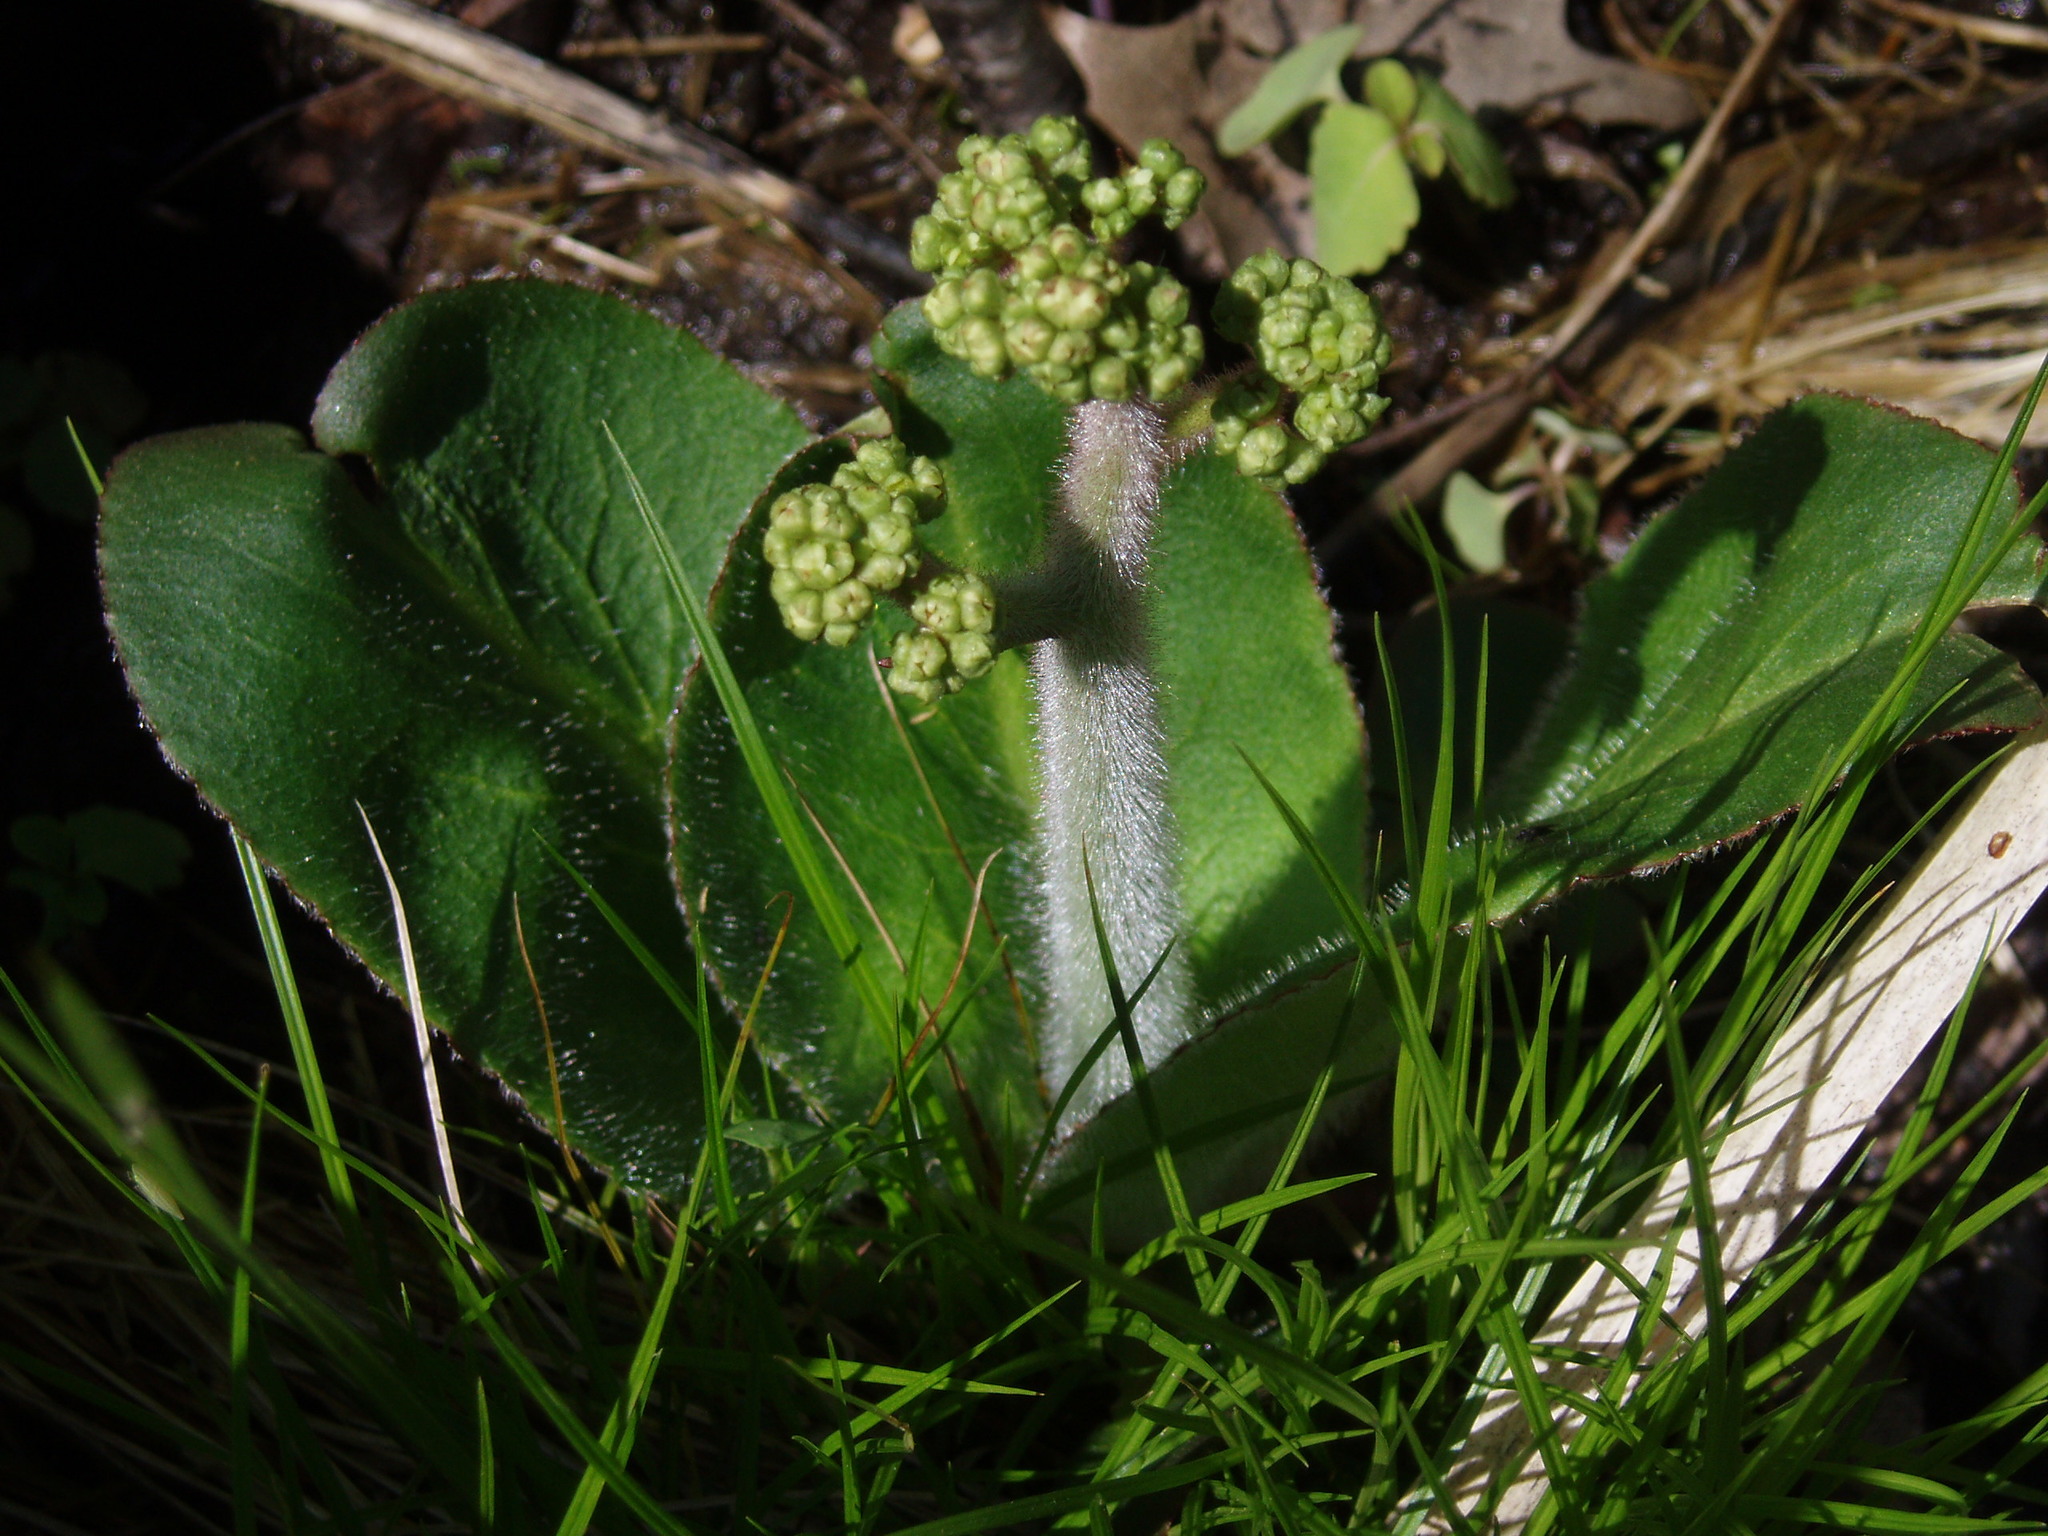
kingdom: Plantae
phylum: Tracheophyta
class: Magnoliopsida
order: Saxifragales
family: Saxifragaceae
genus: Micranthes
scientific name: Micranthes pensylvanica
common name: Marsh saxifrage
